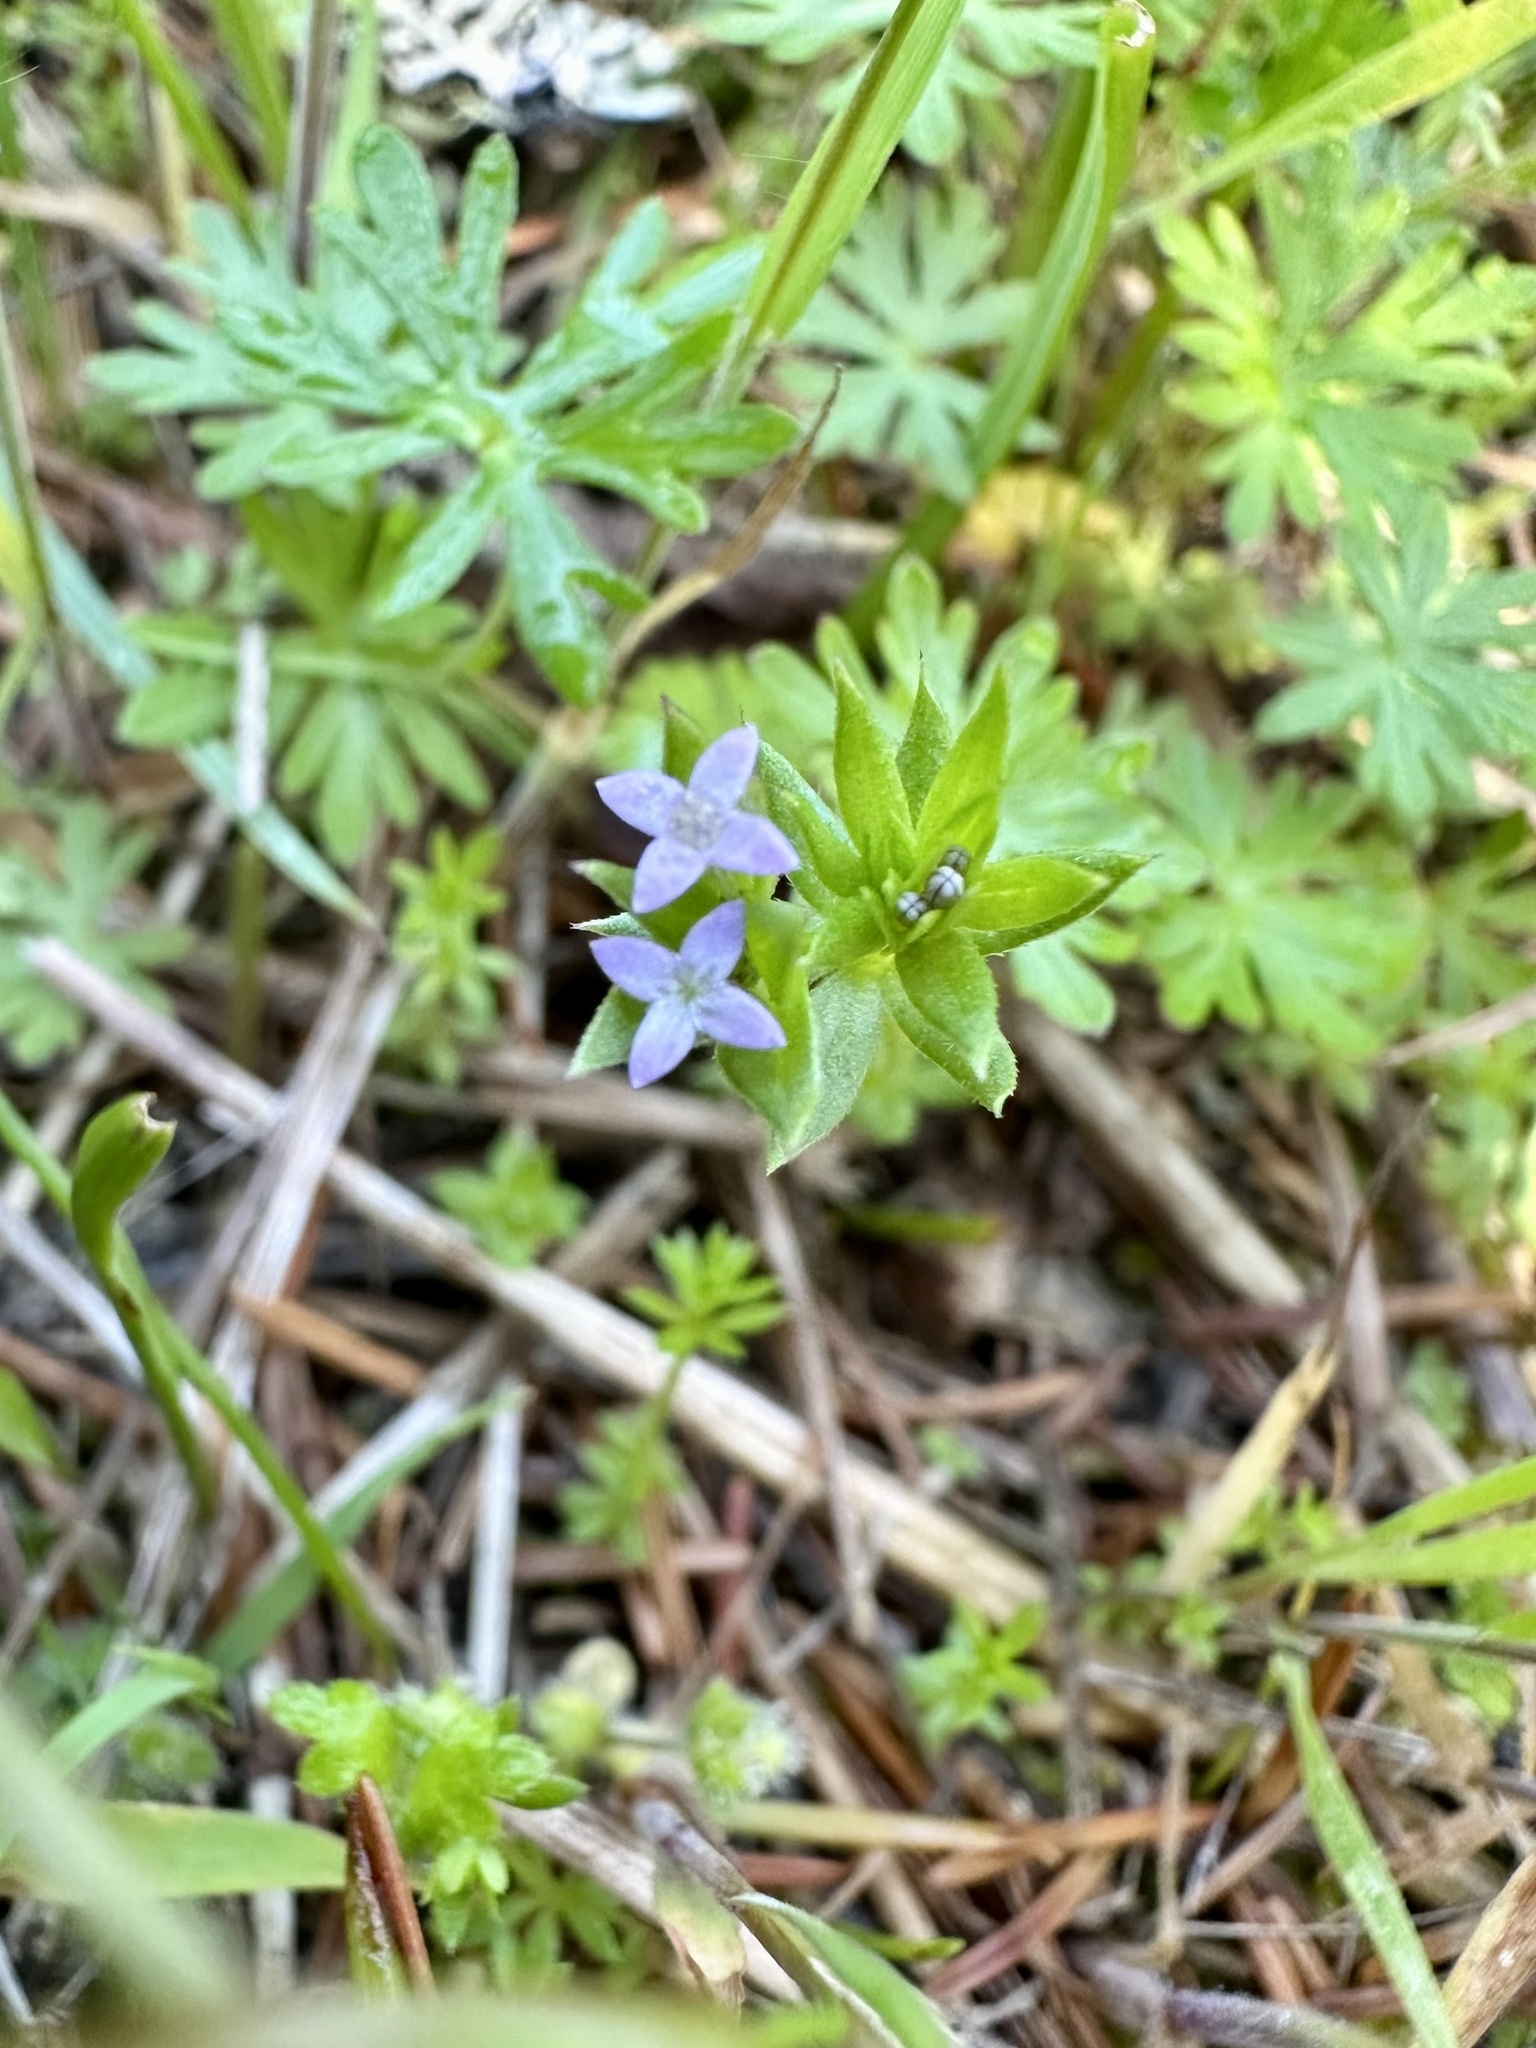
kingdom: Plantae
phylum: Tracheophyta
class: Magnoliopsida
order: Gentianales
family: Rubiaceae
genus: Sherardia
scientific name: Sherardia arvensis
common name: Field madder
